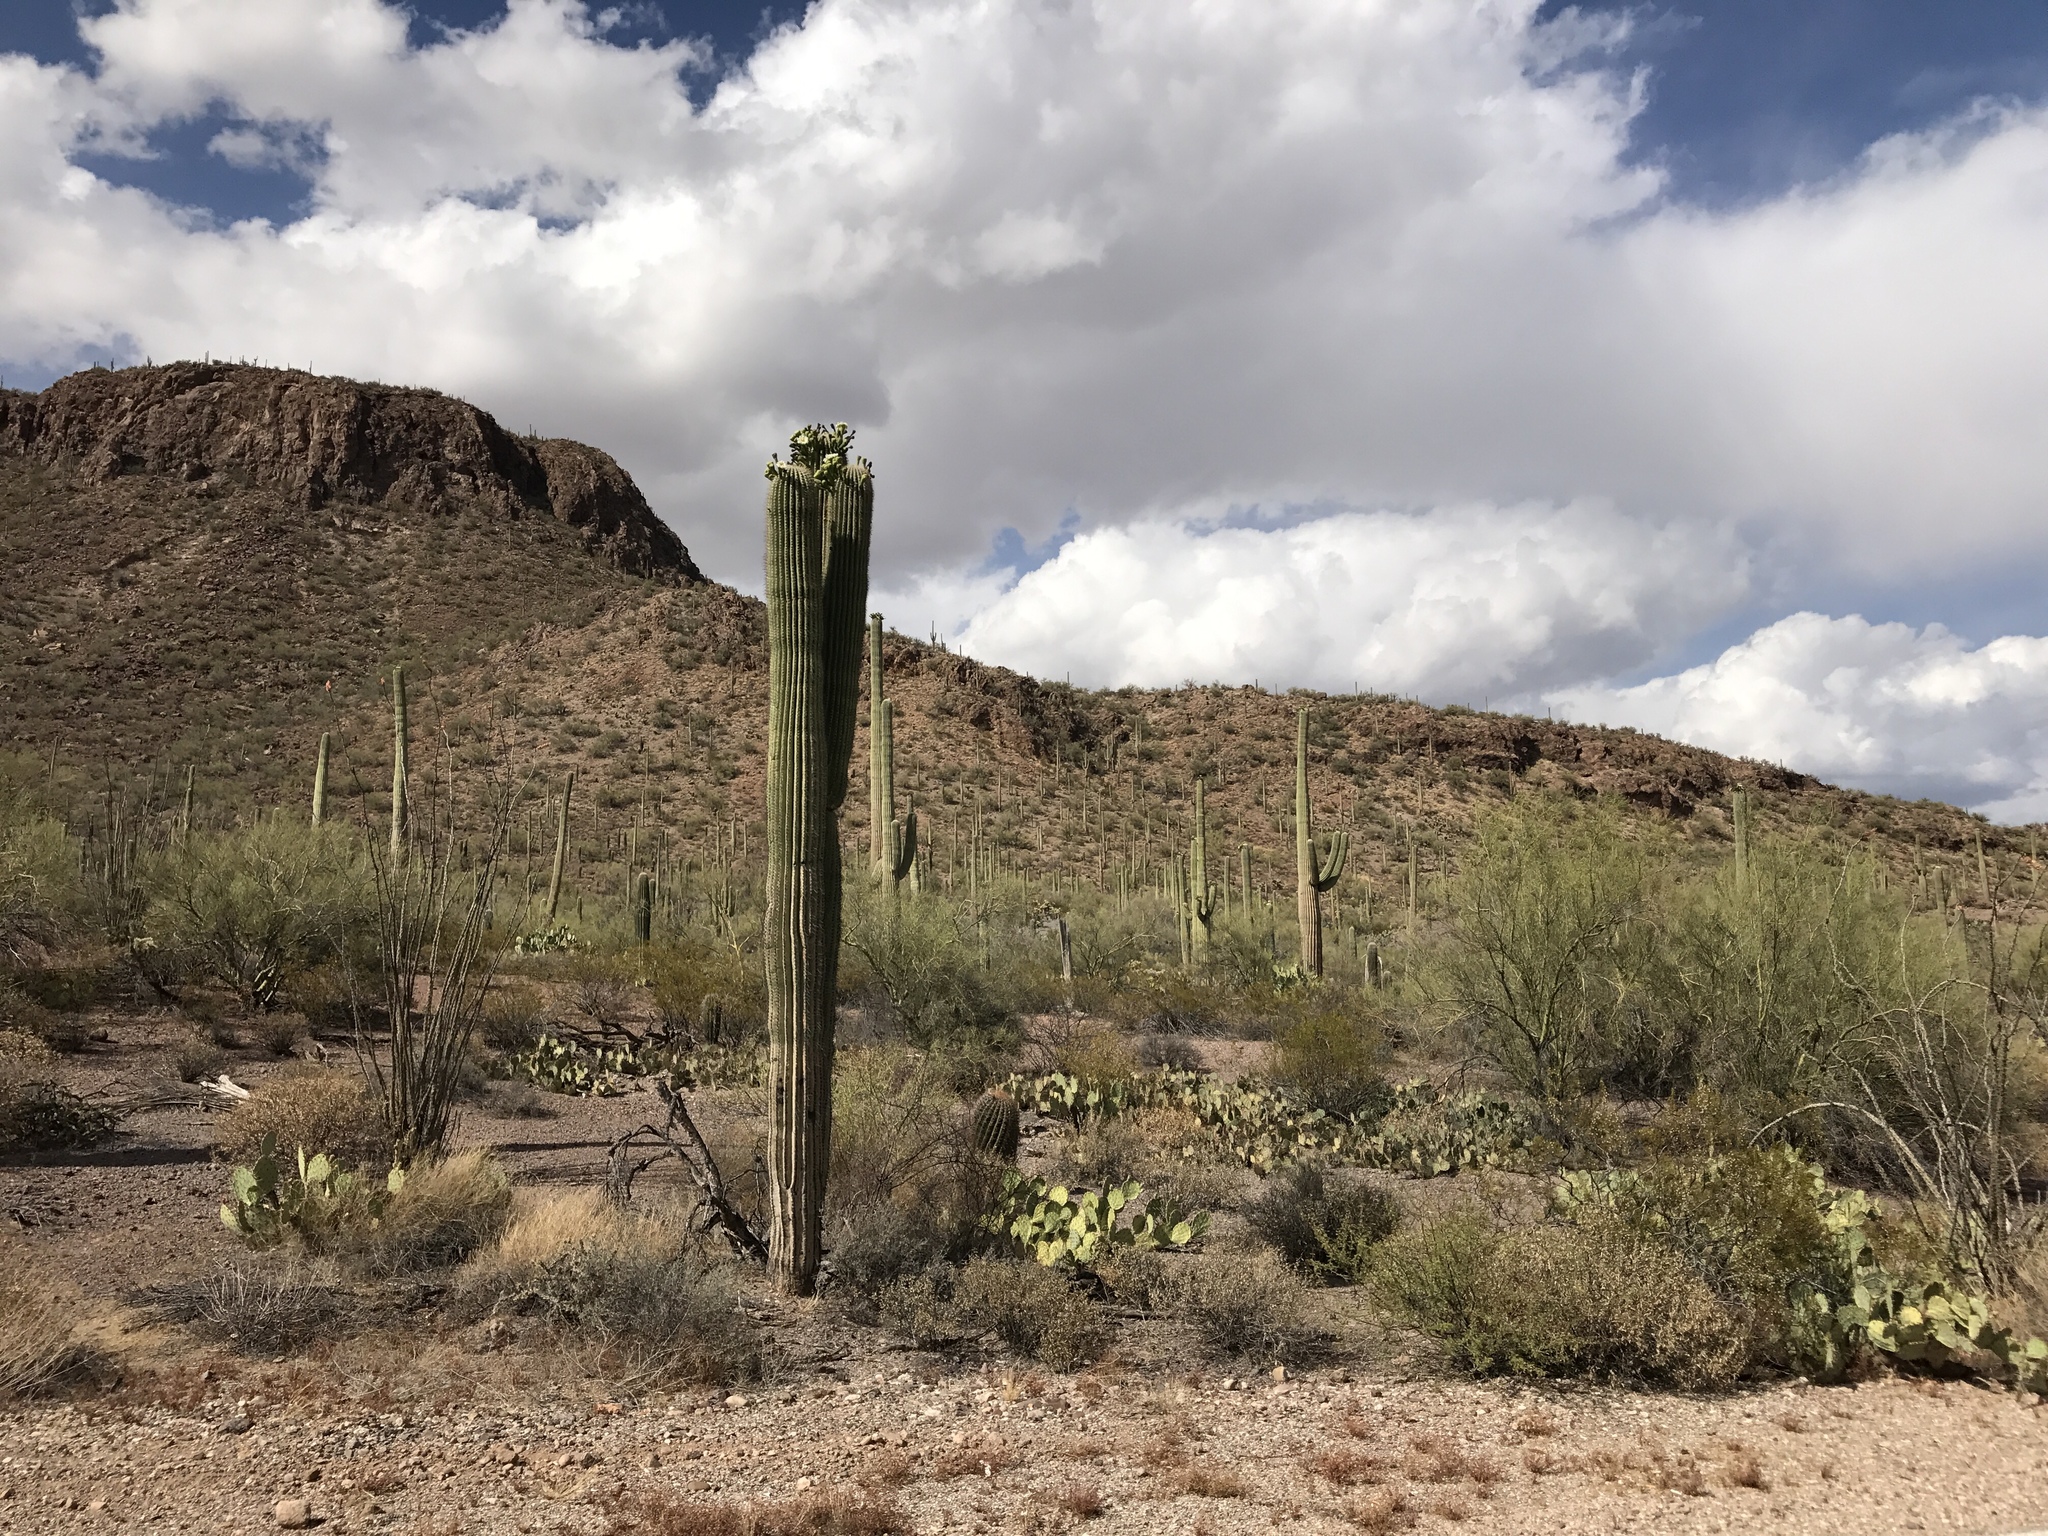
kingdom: Plantae
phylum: Tracheophyta
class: Magnoliopsida
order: Caryophyllales
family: Cactaceae
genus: Carnegiea
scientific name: Carnegiea gigantea
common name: Saguaro
